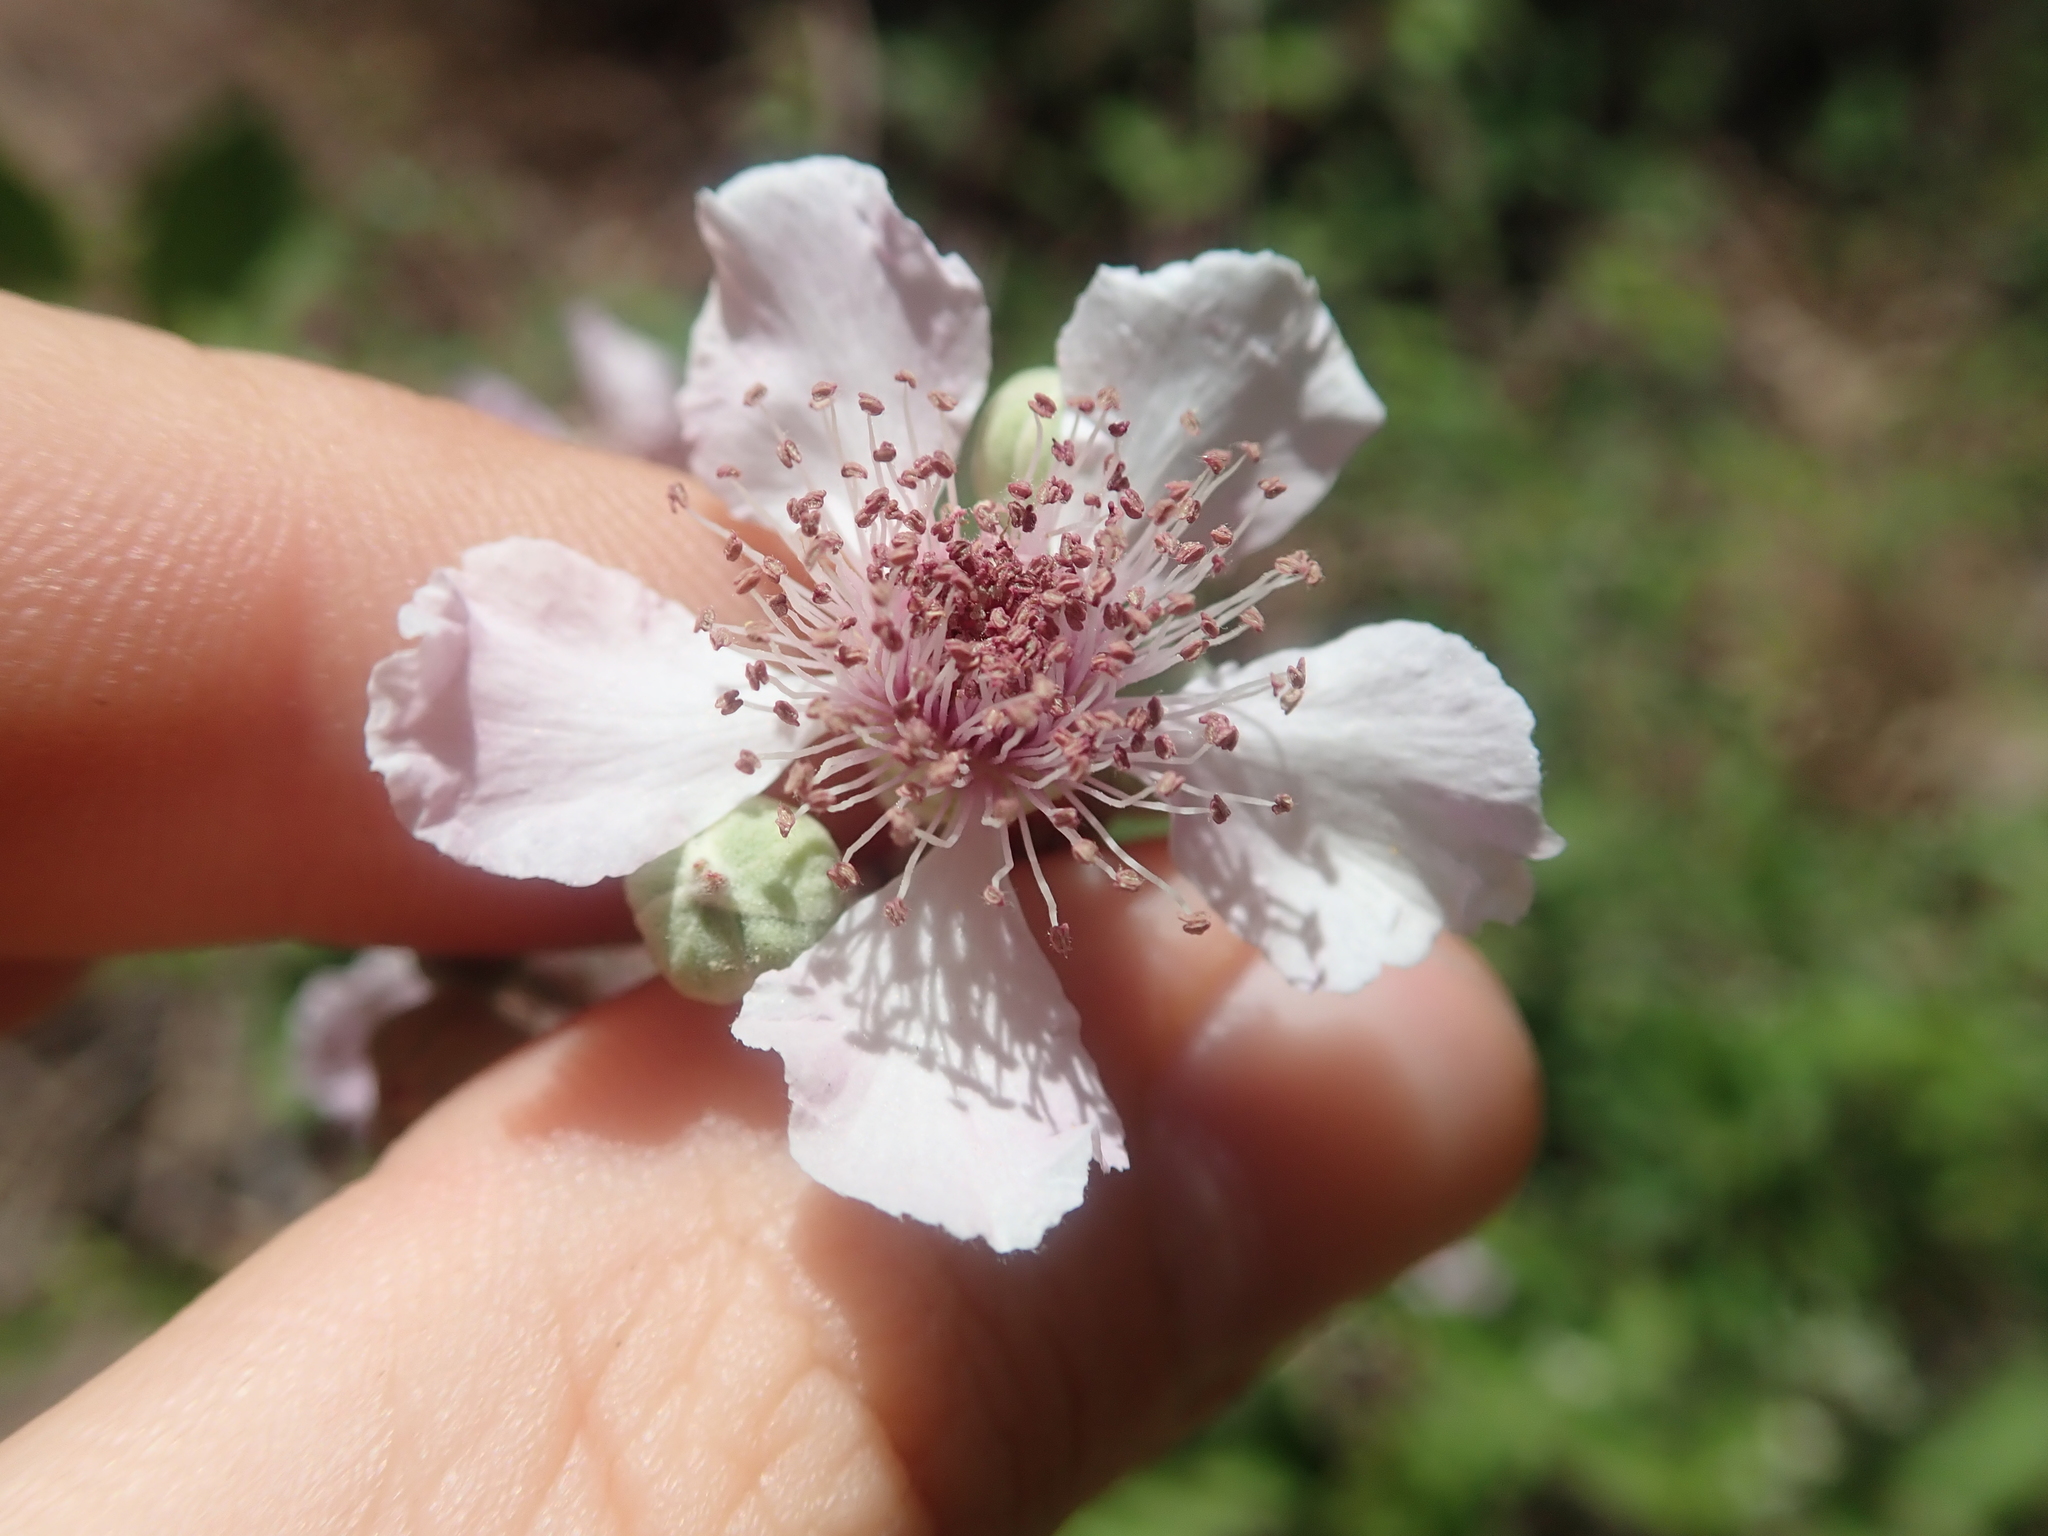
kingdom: Plantae
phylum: Tracheophyta
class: Magnoliopsida
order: Rosales
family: Rosaceae
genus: Rubus
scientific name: Rubus ulmifolius
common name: Elmleaf blackberry
